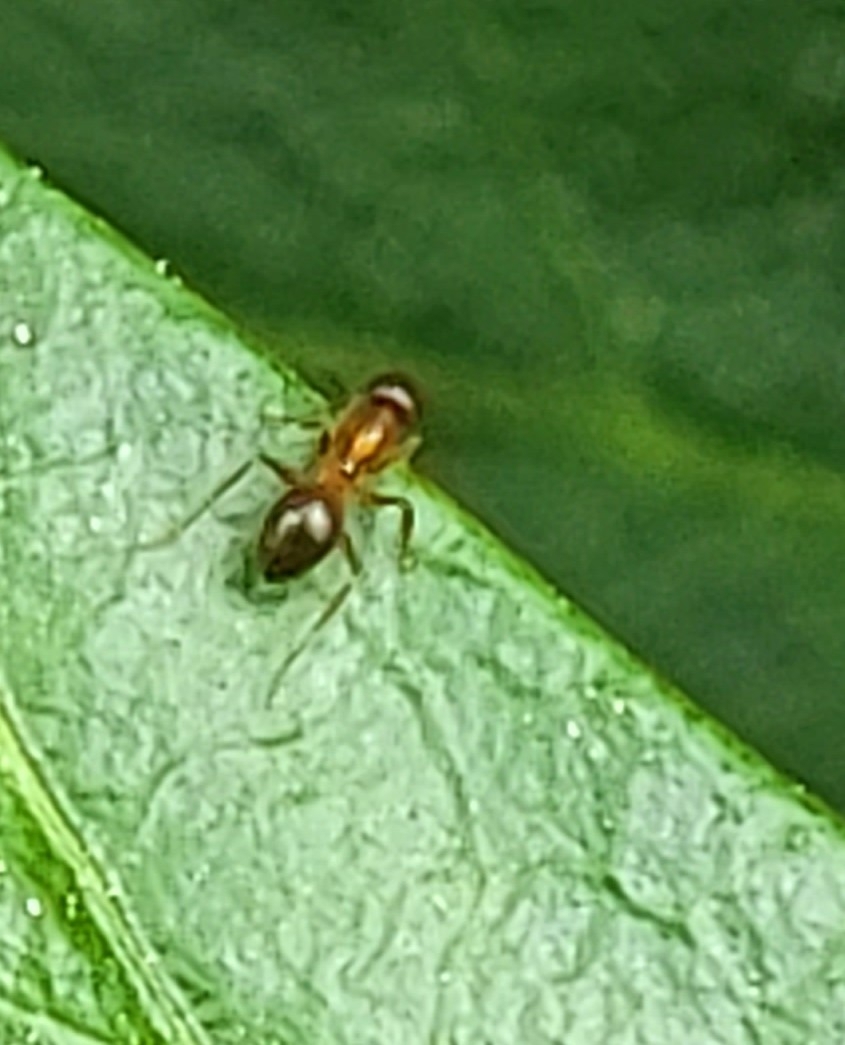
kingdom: Animalia
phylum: Arthropoda
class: Insecta
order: Hymenoptera
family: Formicidae
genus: Paratrechina
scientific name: Paratrechina flavipes
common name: Eastern asian formicine ant
